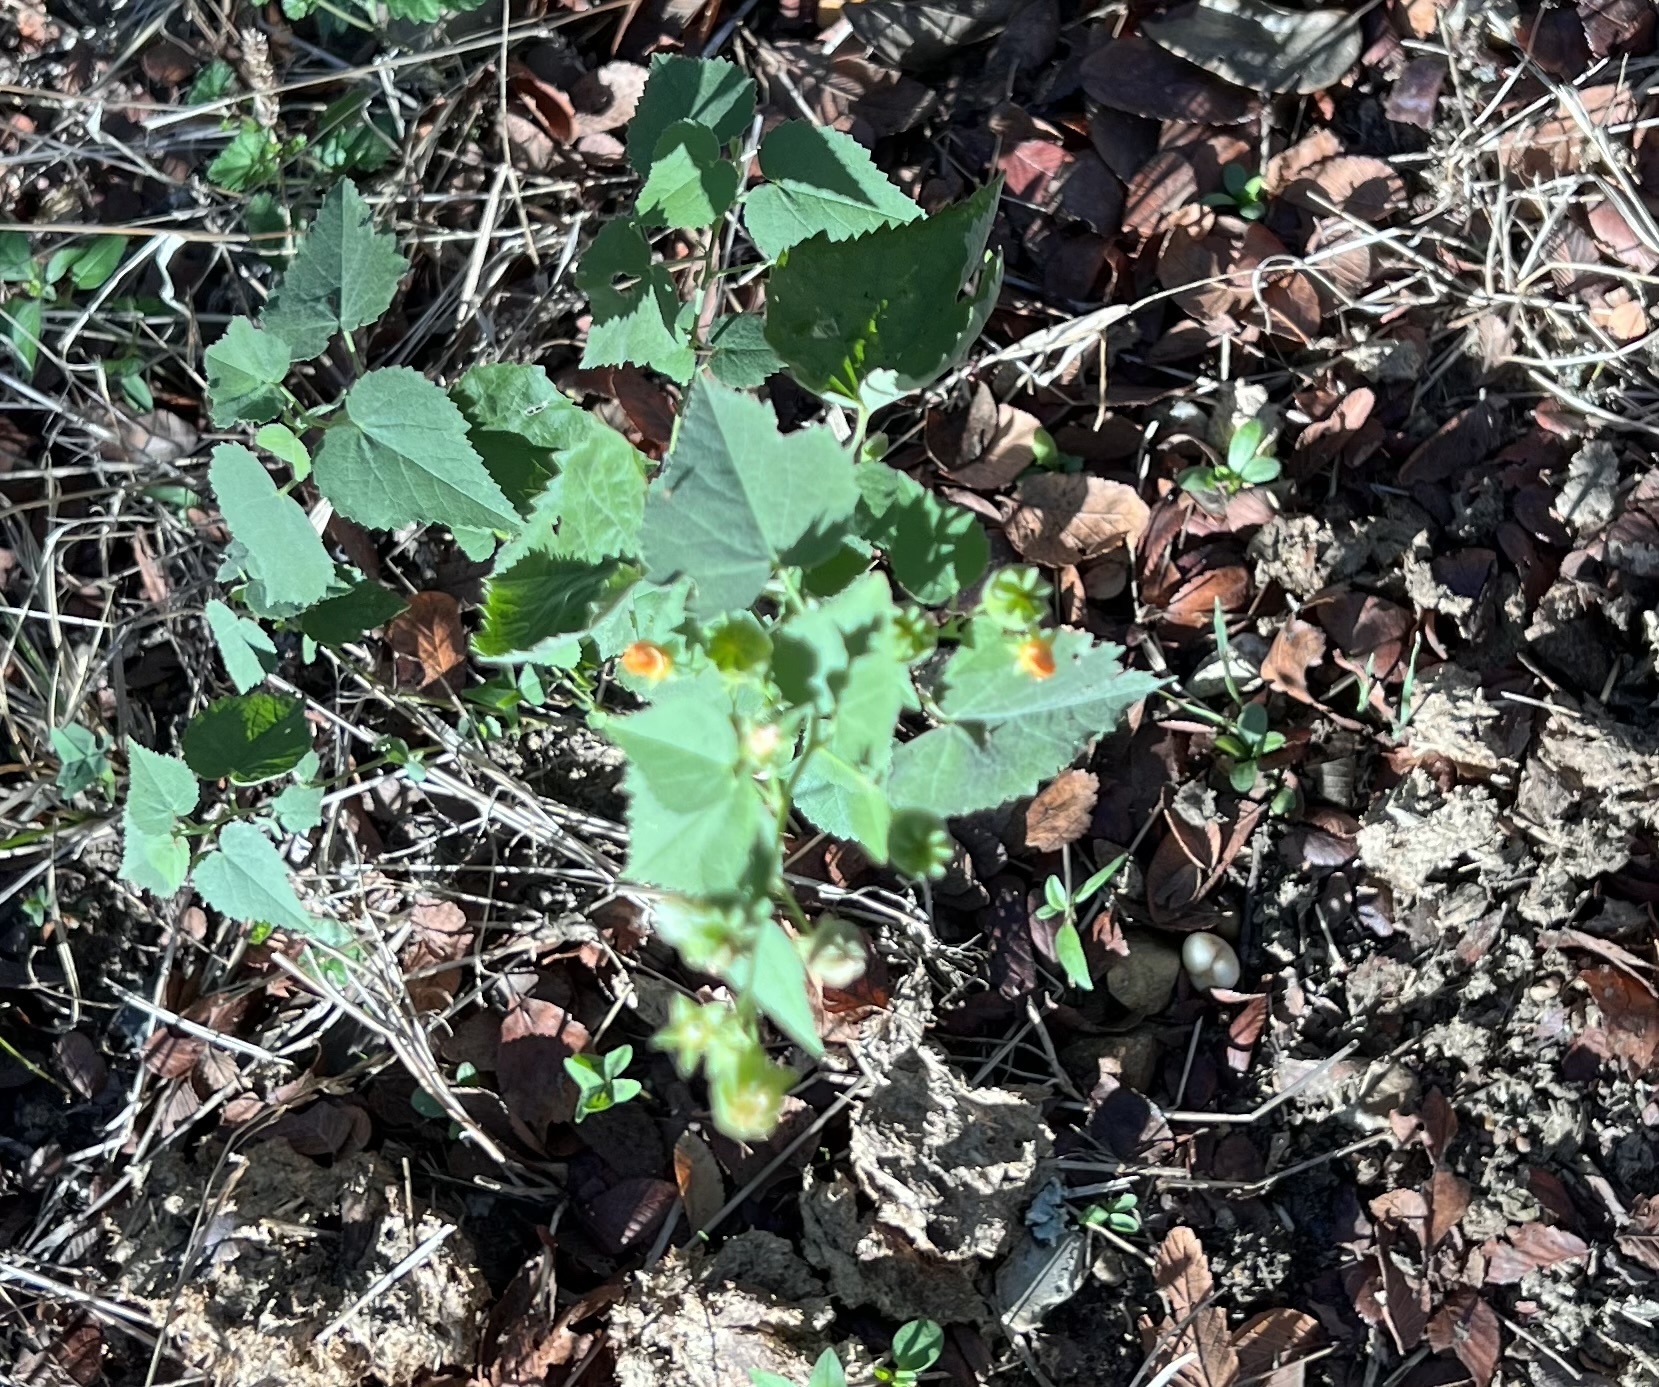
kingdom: Plantae
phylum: Tracheophyta
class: Magnoliopsida
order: Malvales
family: Malvaceae
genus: Abutilon
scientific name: Abutilon fruticosum
